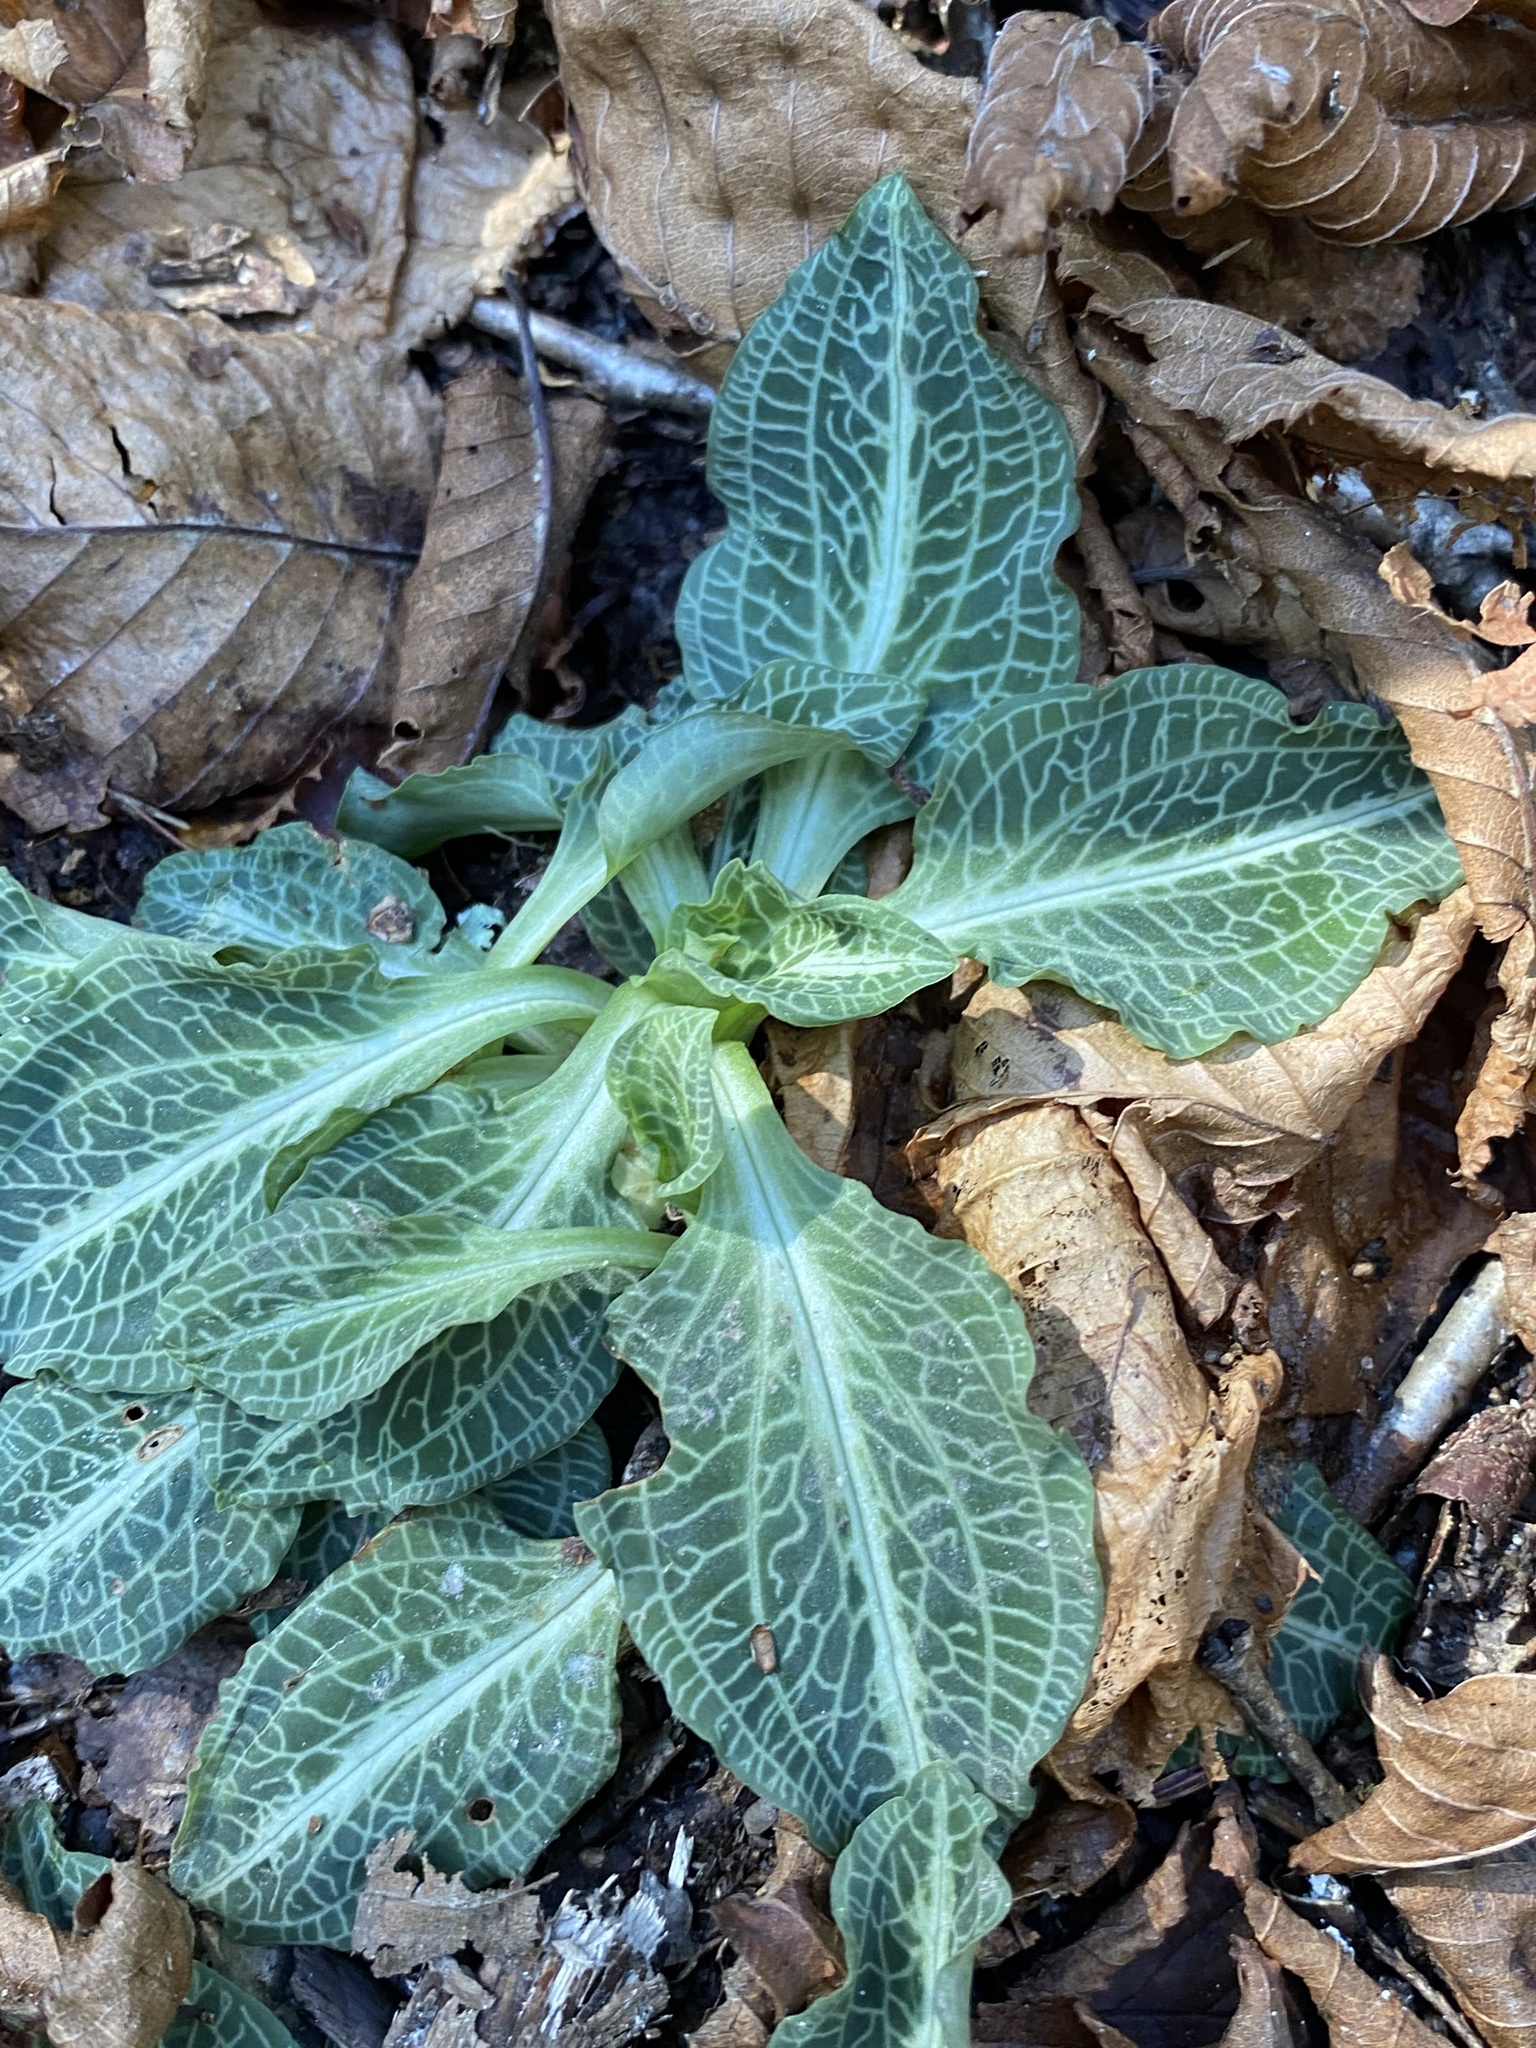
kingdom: Plantae
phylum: Tracheophyta
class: Liliopsida
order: Asparagales
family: Orchidaceae
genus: Goodyera
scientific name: Goodyera pubescens
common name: Downy rattlesnake-plantain
